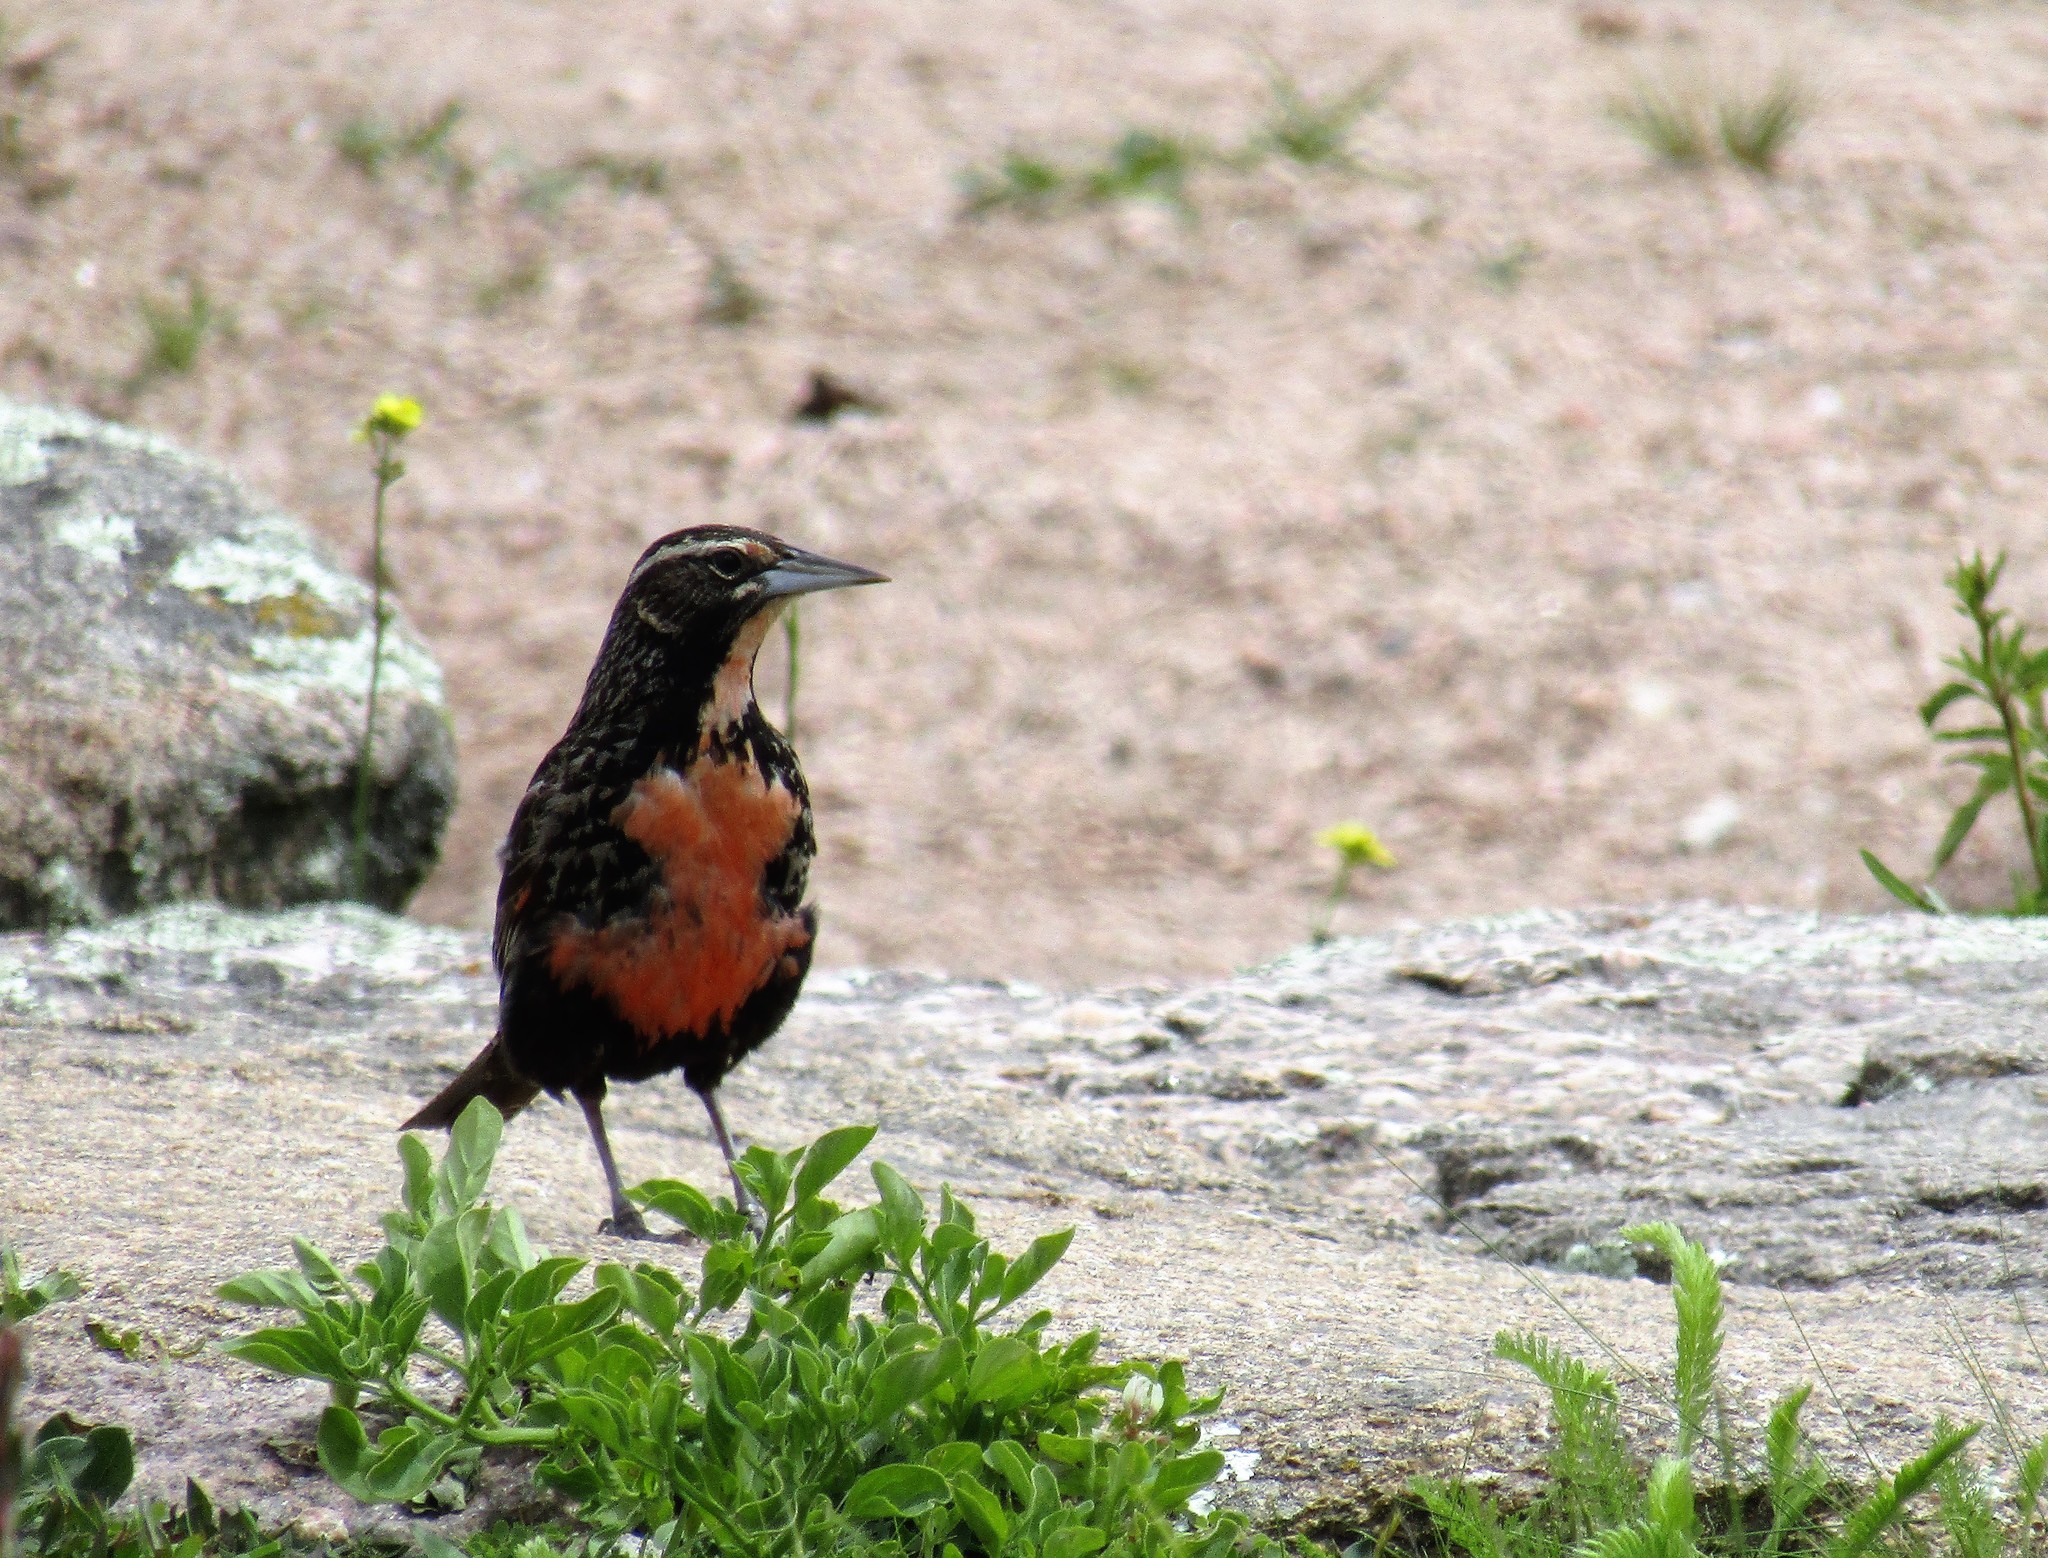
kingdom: Animalia
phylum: Chordata
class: Aves
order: Passeriformes
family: Icteridae
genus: Sturnella
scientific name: Sturnella loyca
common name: Long-tailed meadowlark
